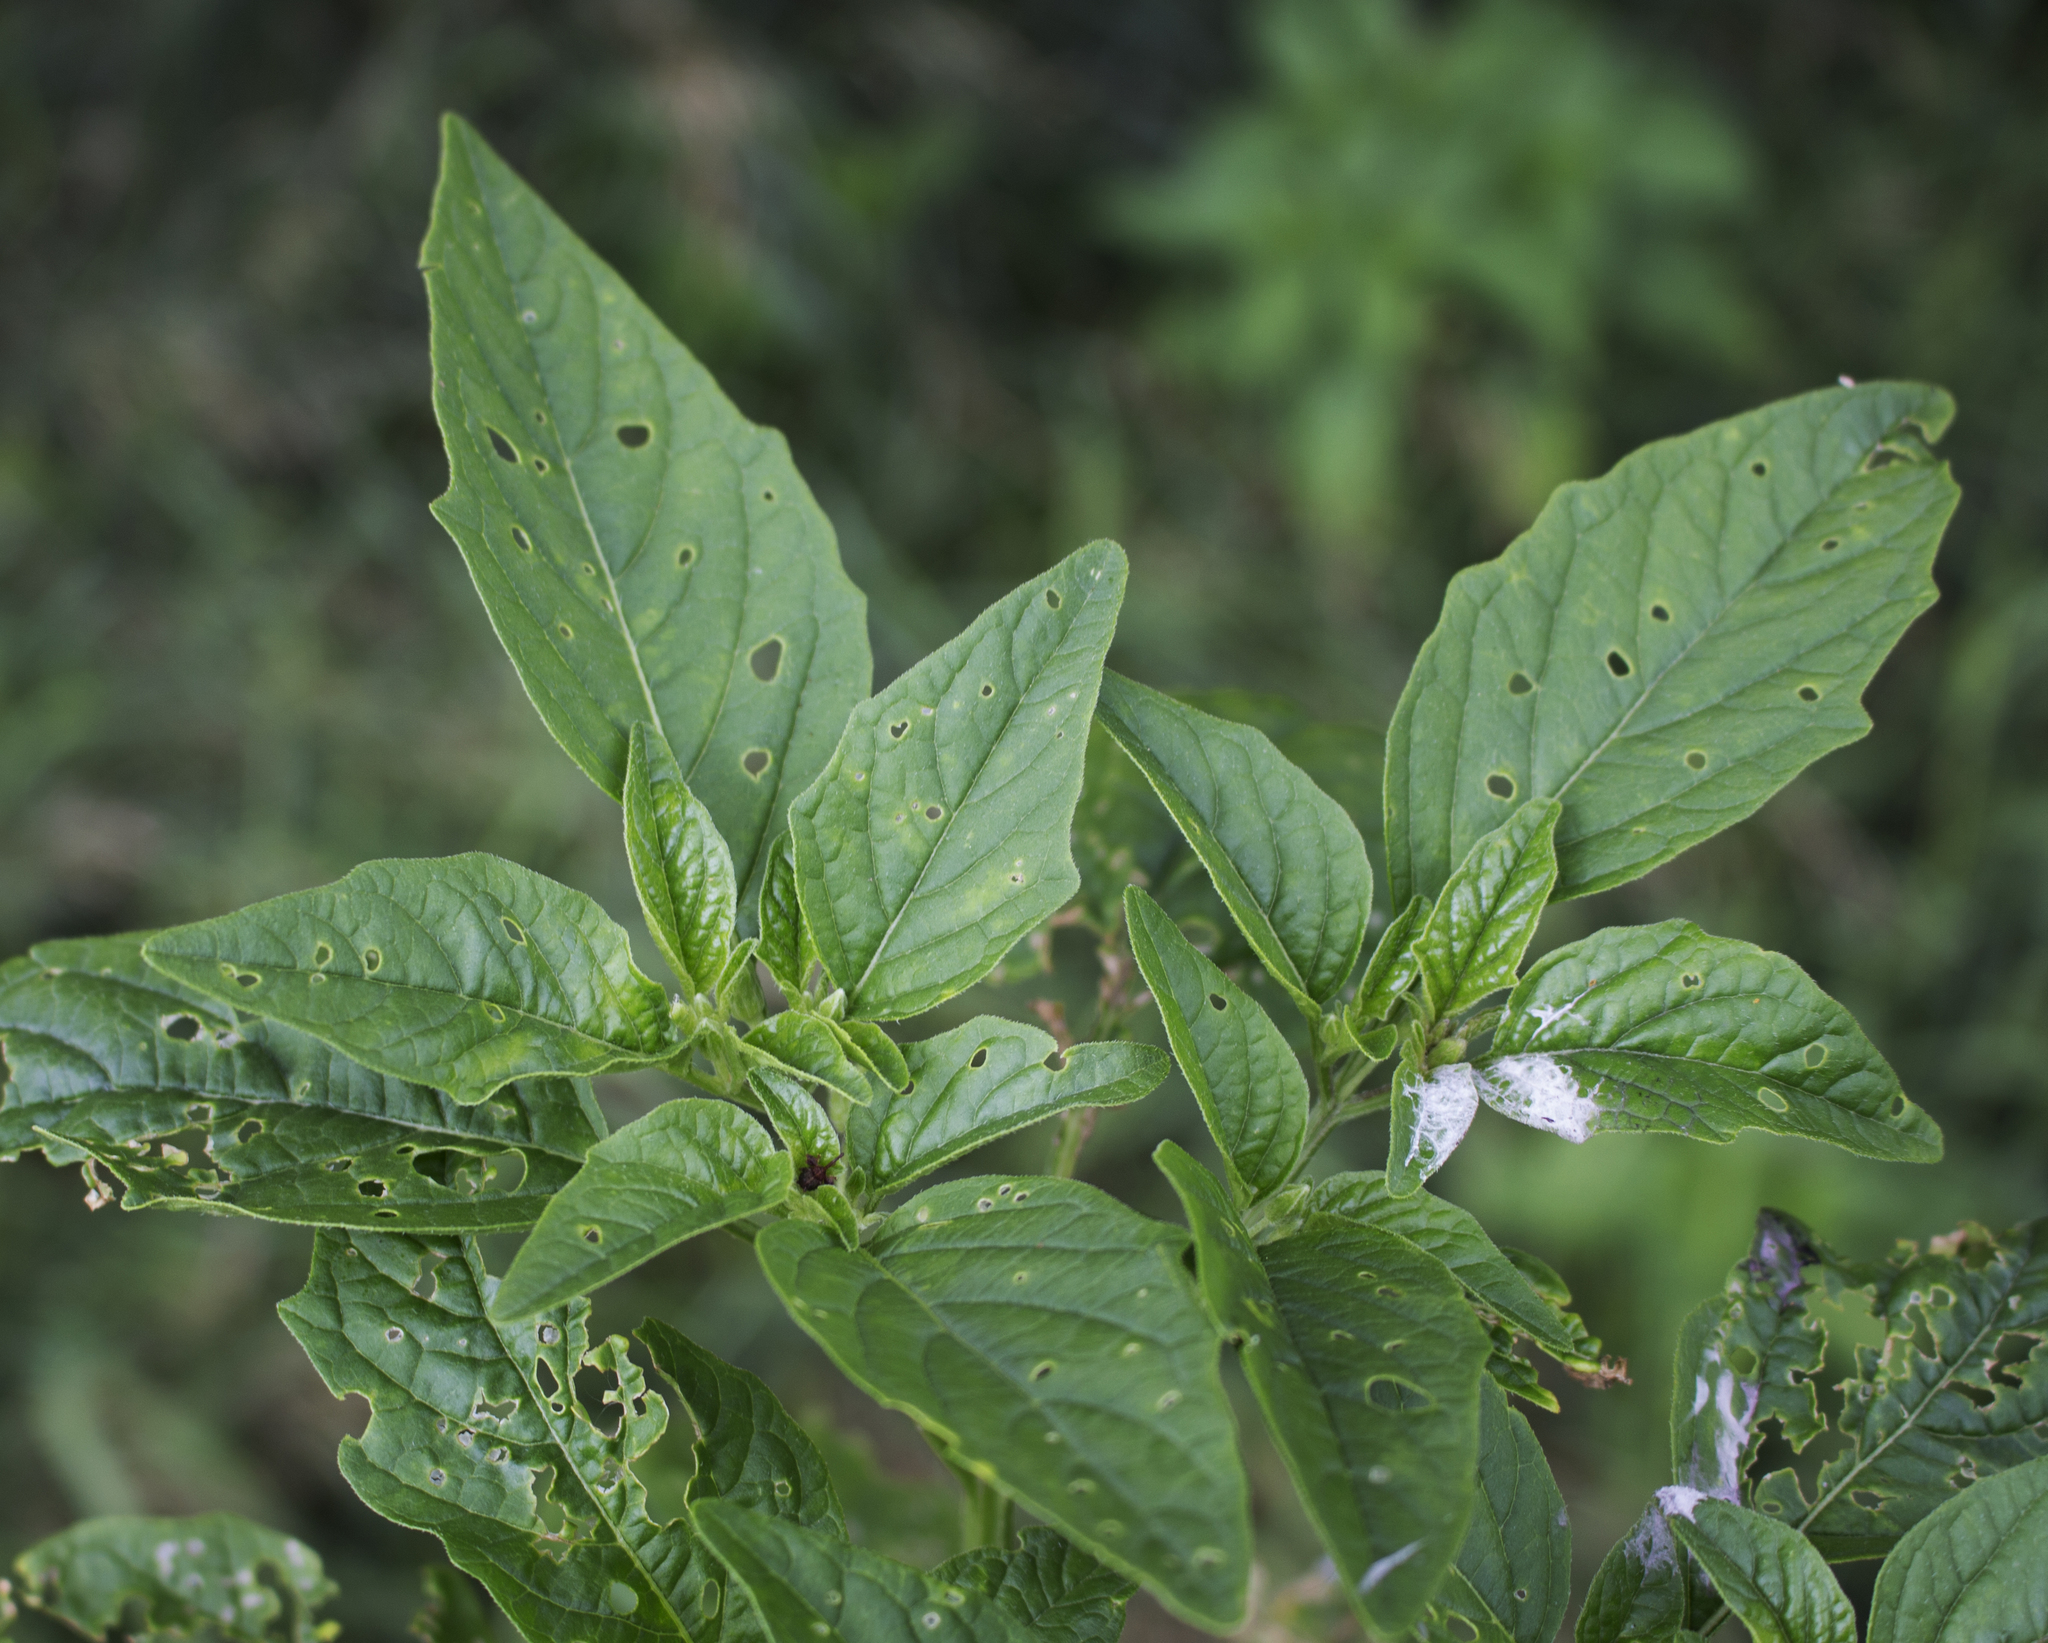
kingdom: Plantae
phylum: Tracheophyta
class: Magnoliopsida
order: Solanales
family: Solanaceae
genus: Physalis
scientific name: Physalis longifolia
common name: Common ground-cherry
